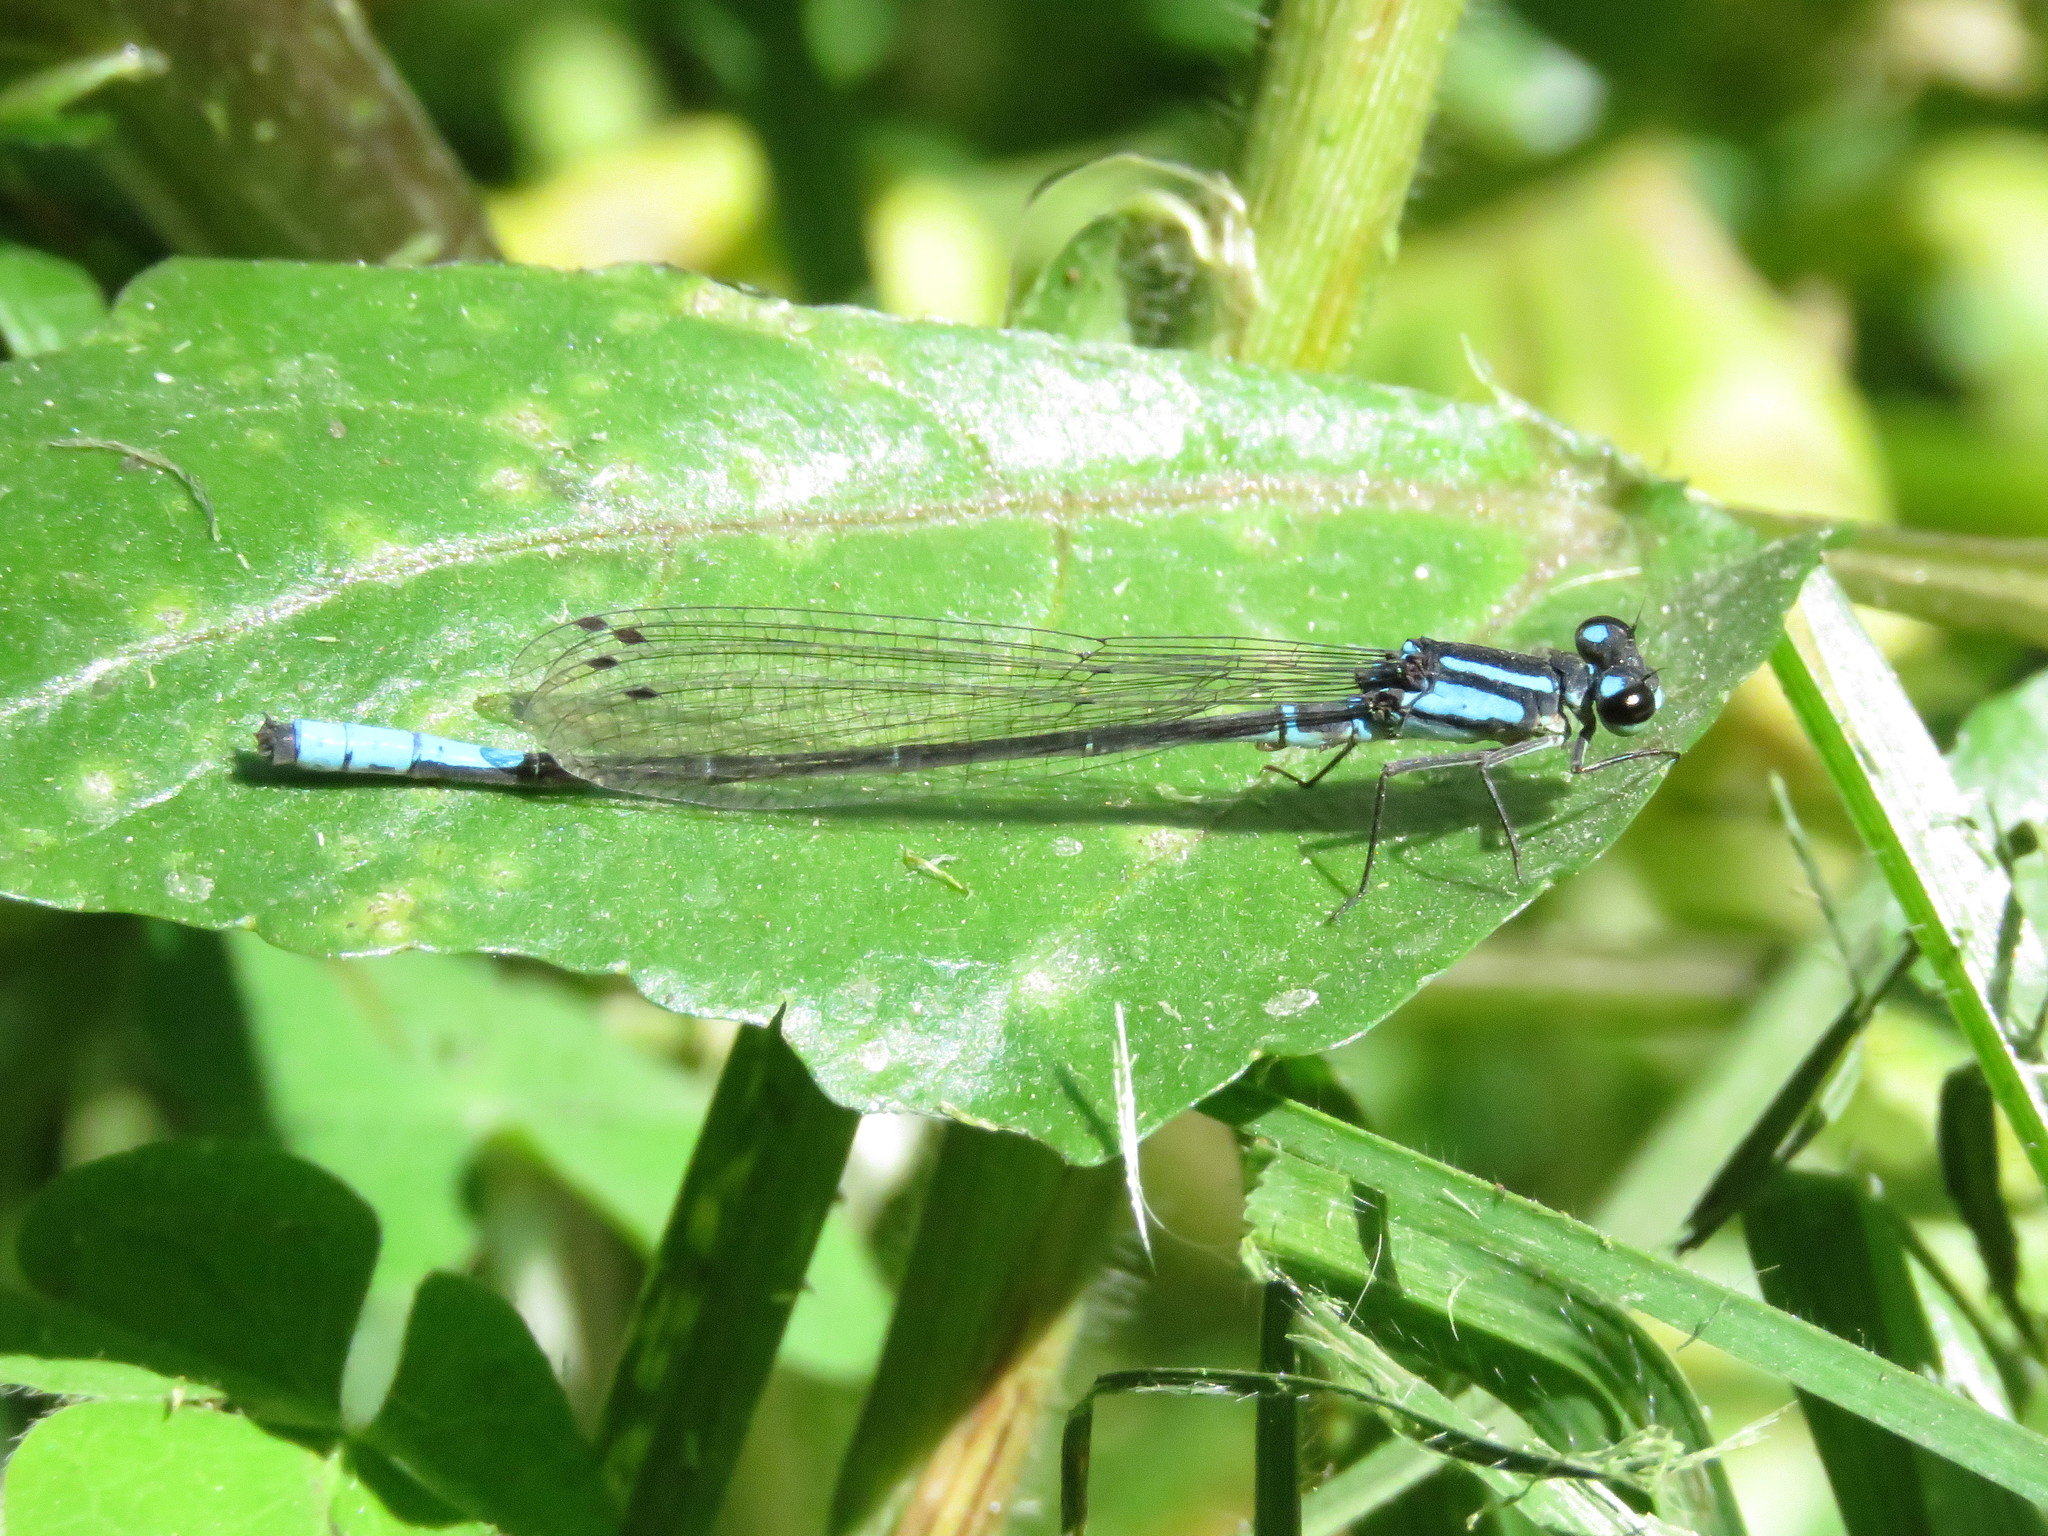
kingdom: Animalia
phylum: Arthropoda
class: Insecta
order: Odonata
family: Coenagrionidae
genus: Mesamphiagrion
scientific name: Mesamphiagrion laterale
